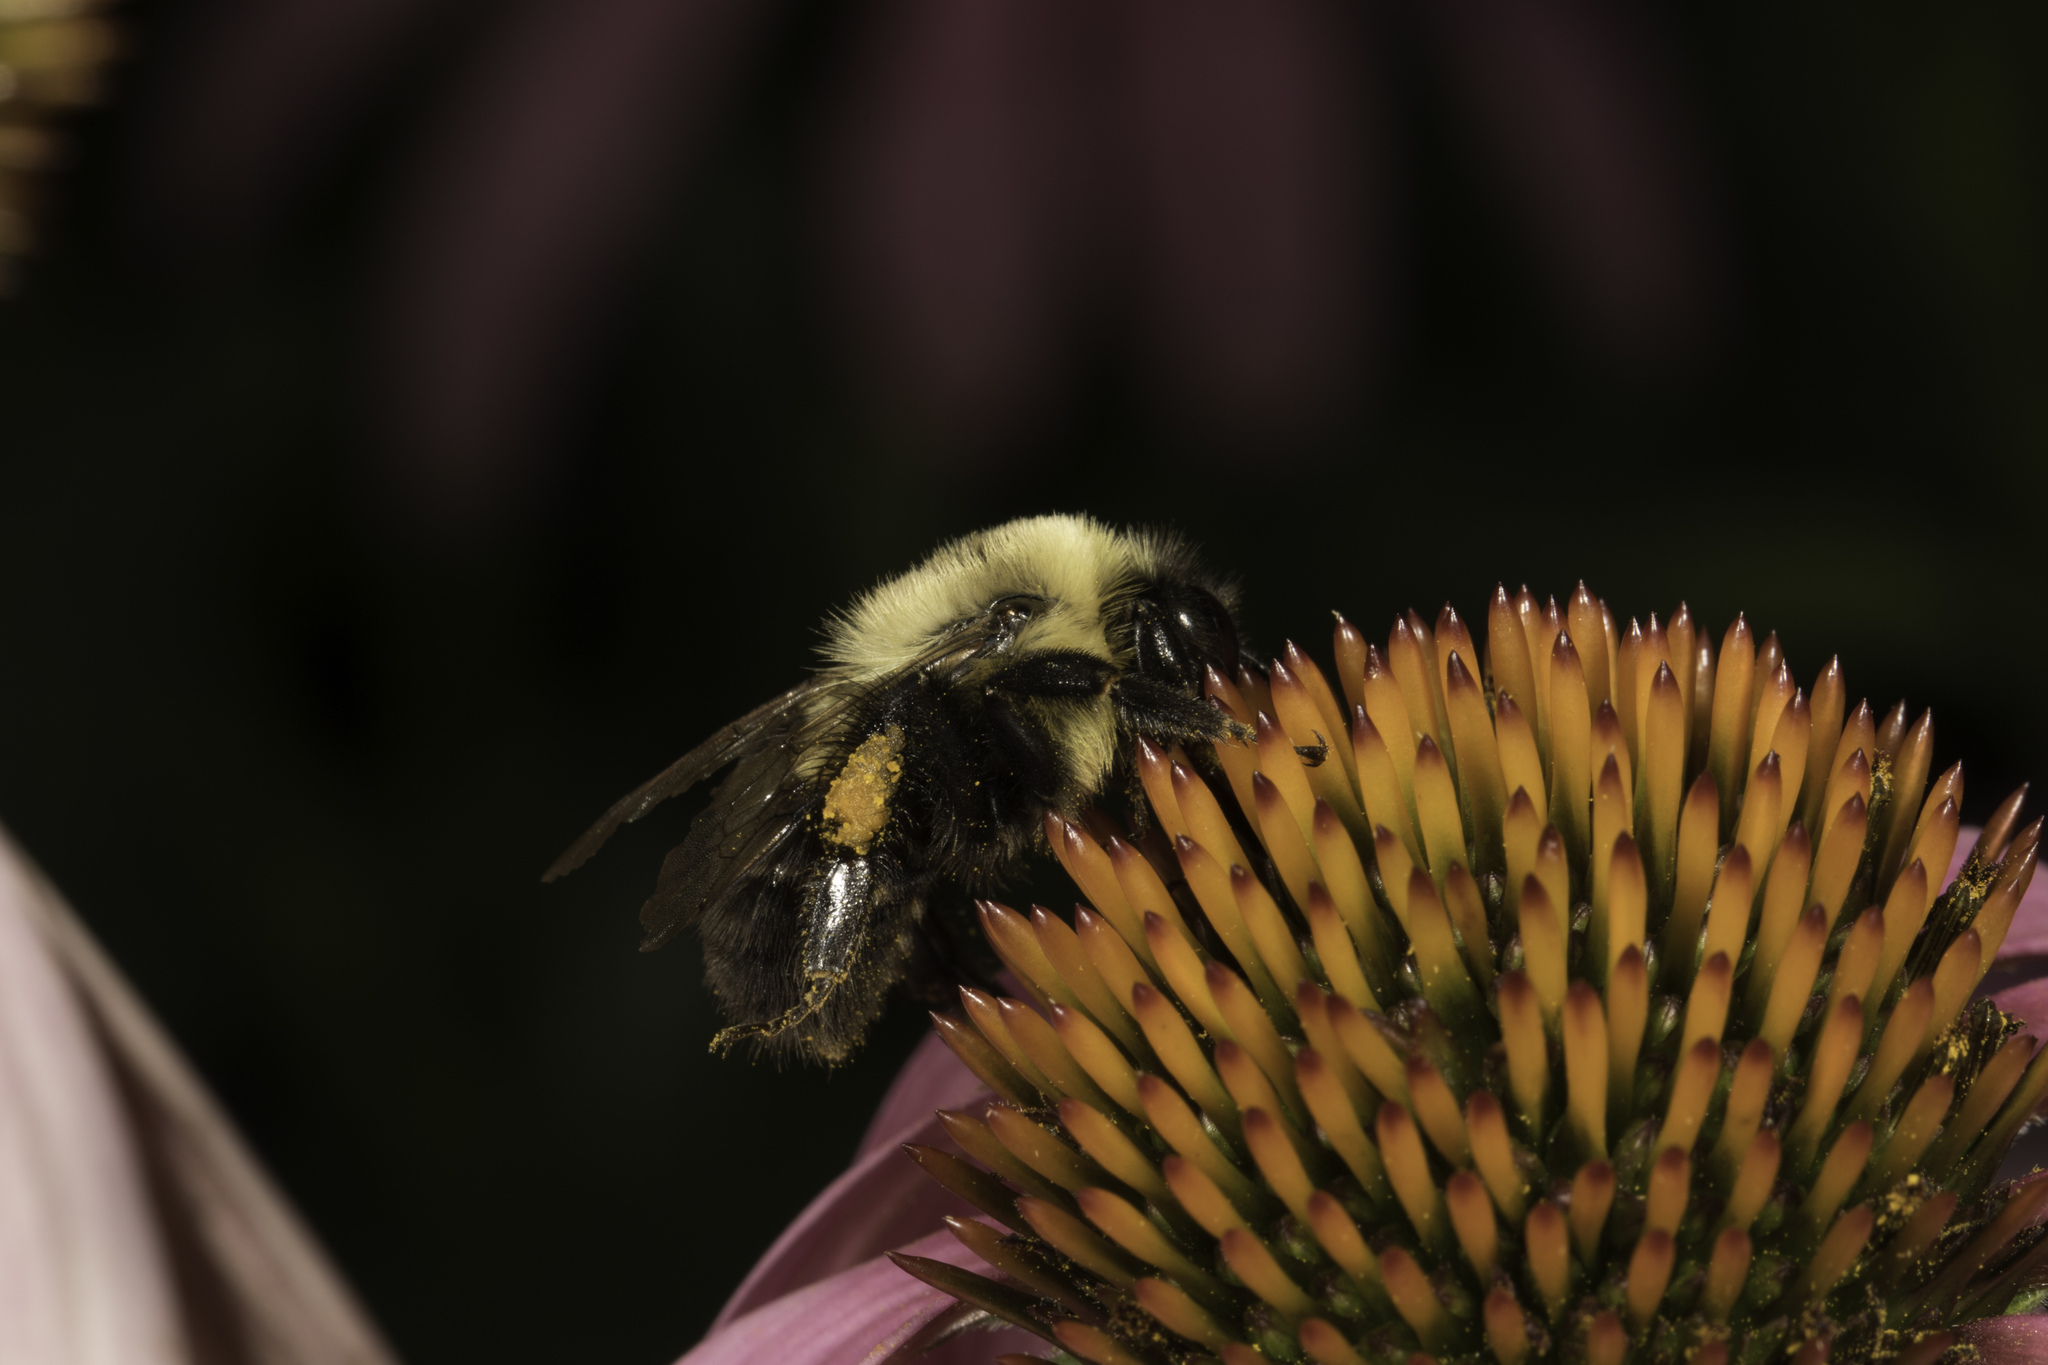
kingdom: Animalia
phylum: Arthropoda
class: Insecta
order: Hymenoptera
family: Apidae
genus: Bombus
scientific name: Bombus impatiens
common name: Common eastern bumble bee
